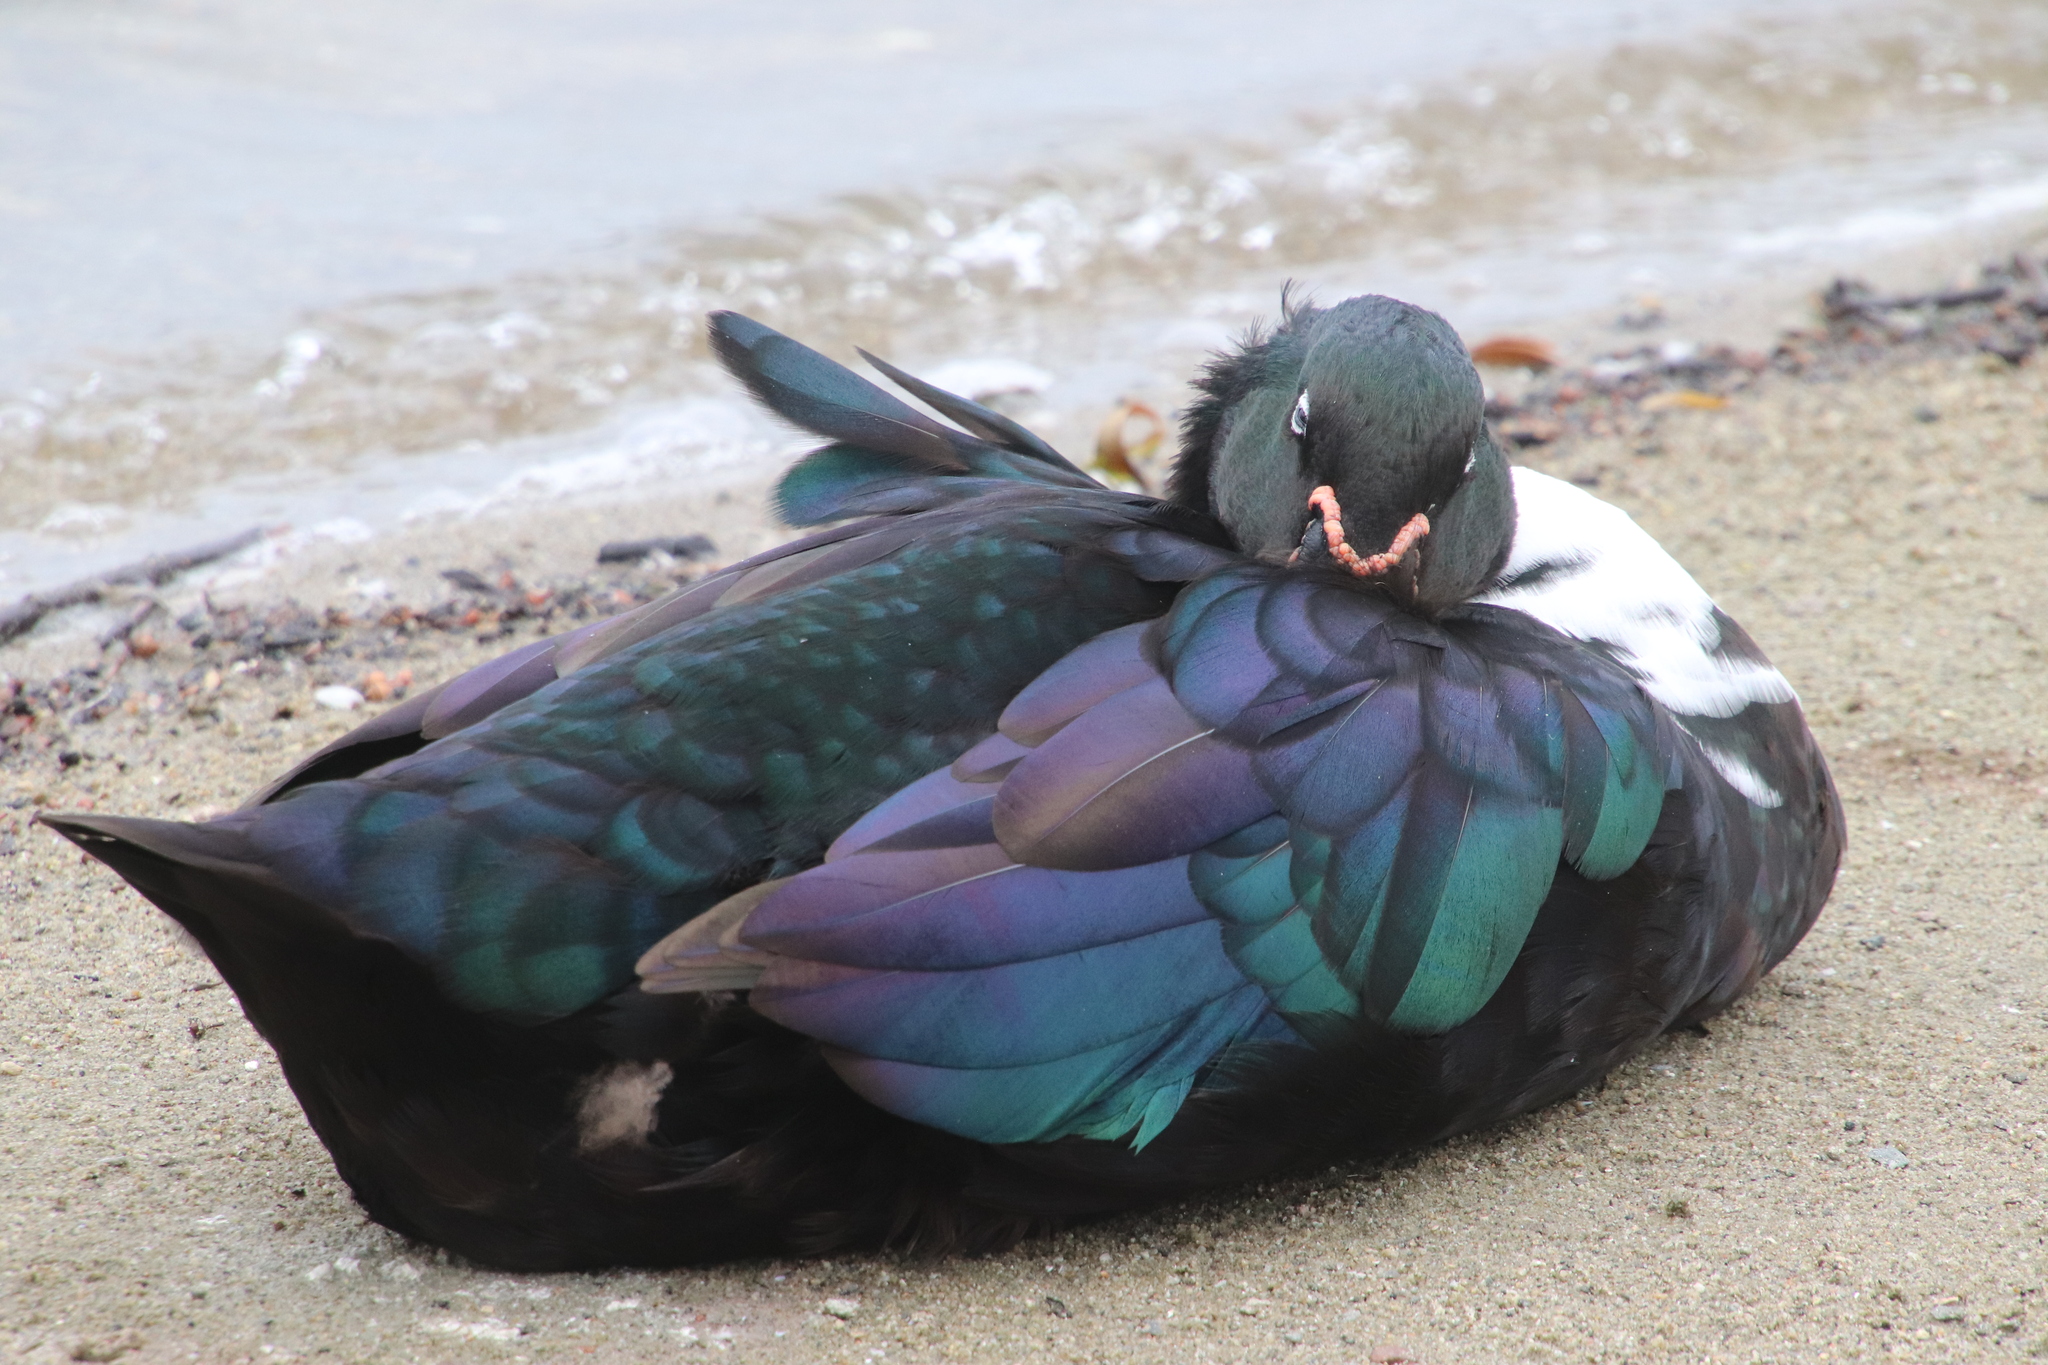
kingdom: Animalia
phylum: Chordata
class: Aves
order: Anseriformes
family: Anatidae
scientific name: Anatidae
